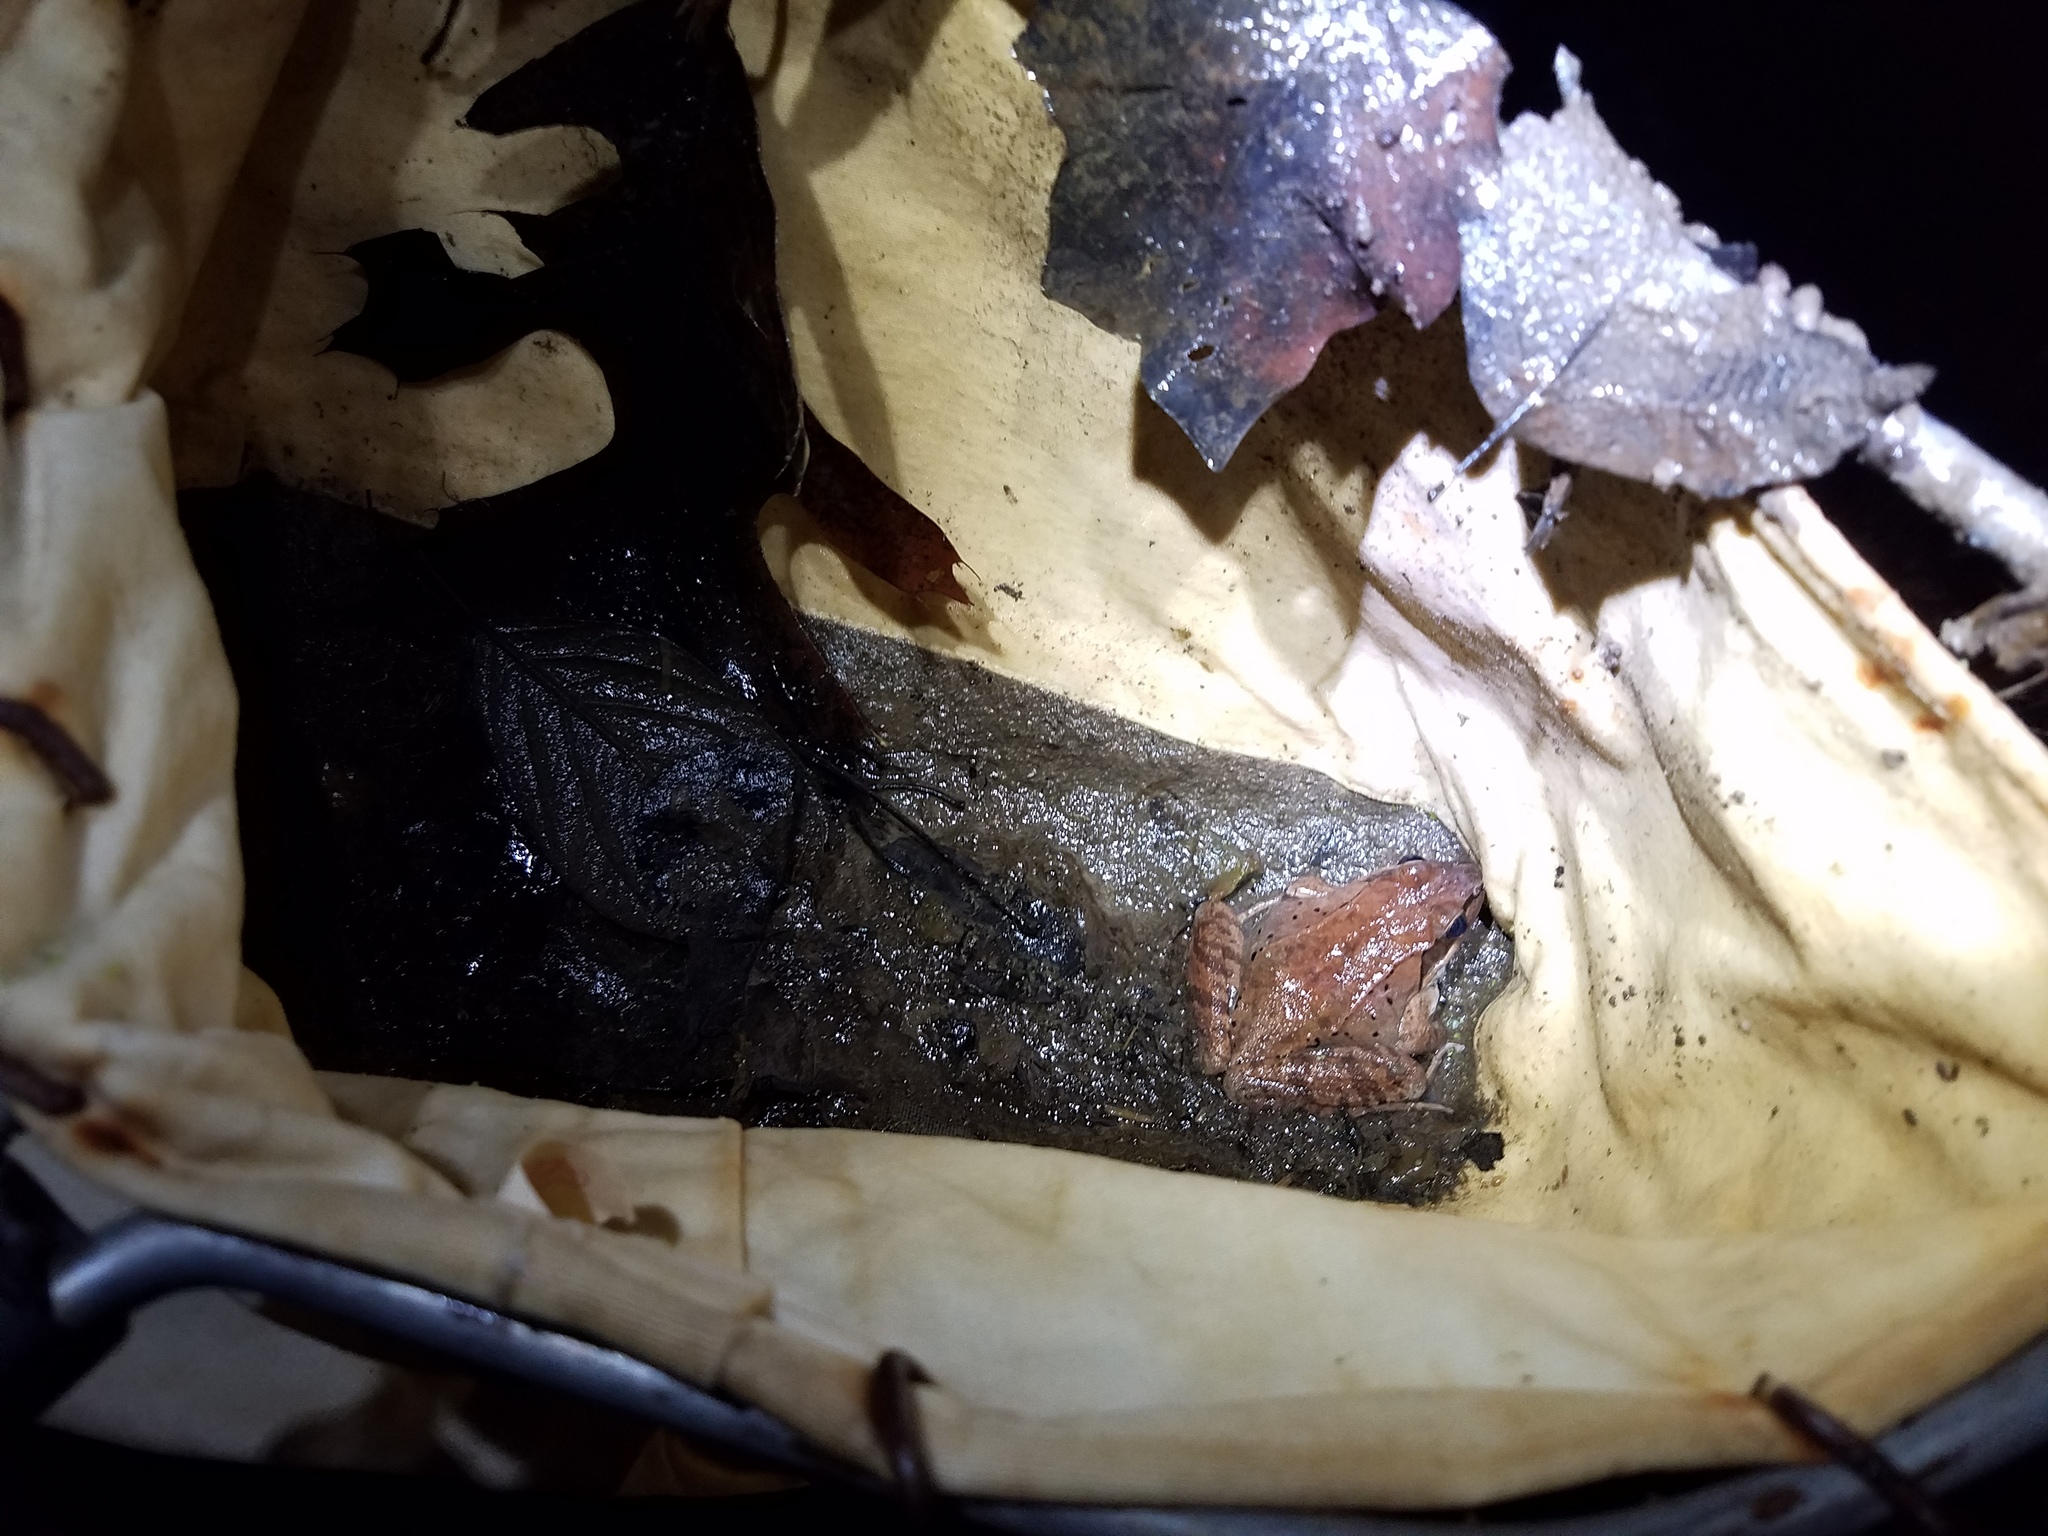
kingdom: Animalia
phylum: Chordata
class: Amphibia
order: Anura
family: Ranidae
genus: Lithobates
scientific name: Lithobates sylvaticus
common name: Wood frog
